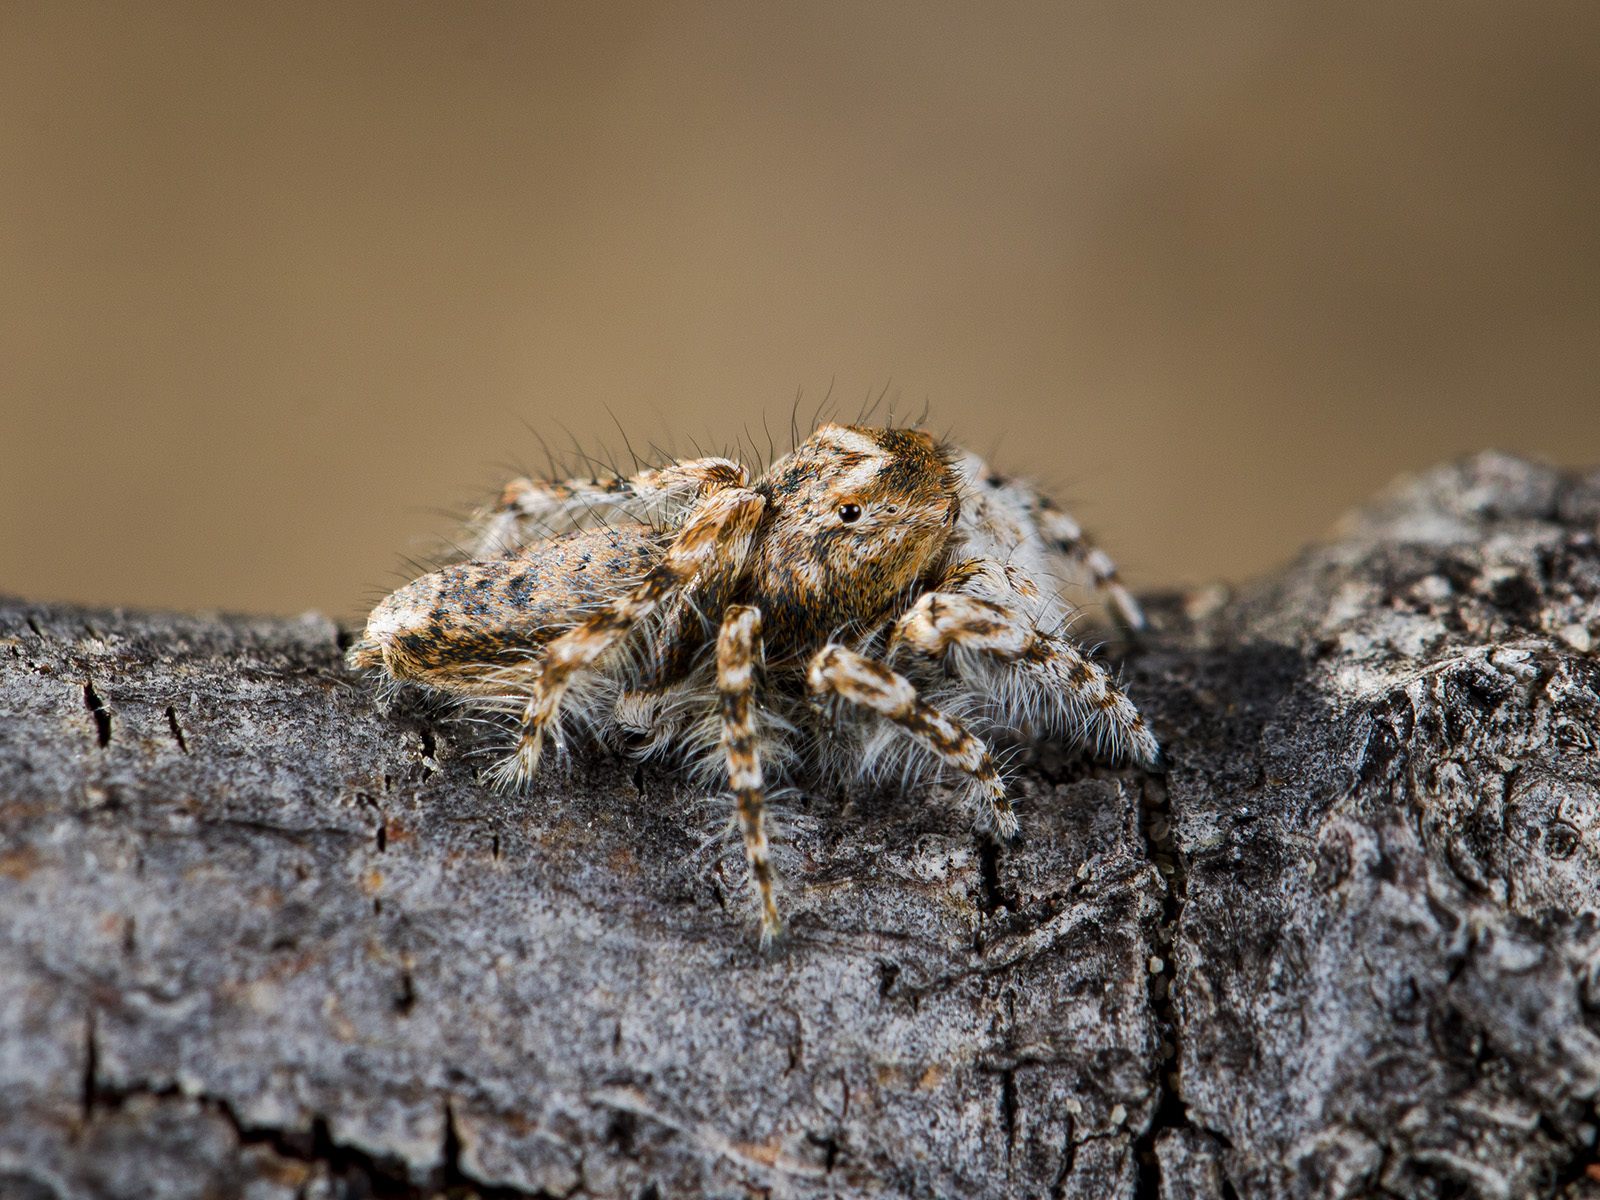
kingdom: Animalia
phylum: Arthropoda
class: Arachnida
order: Araneae
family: Salticidae
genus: Yllenus
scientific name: Yllenus uiguricus
